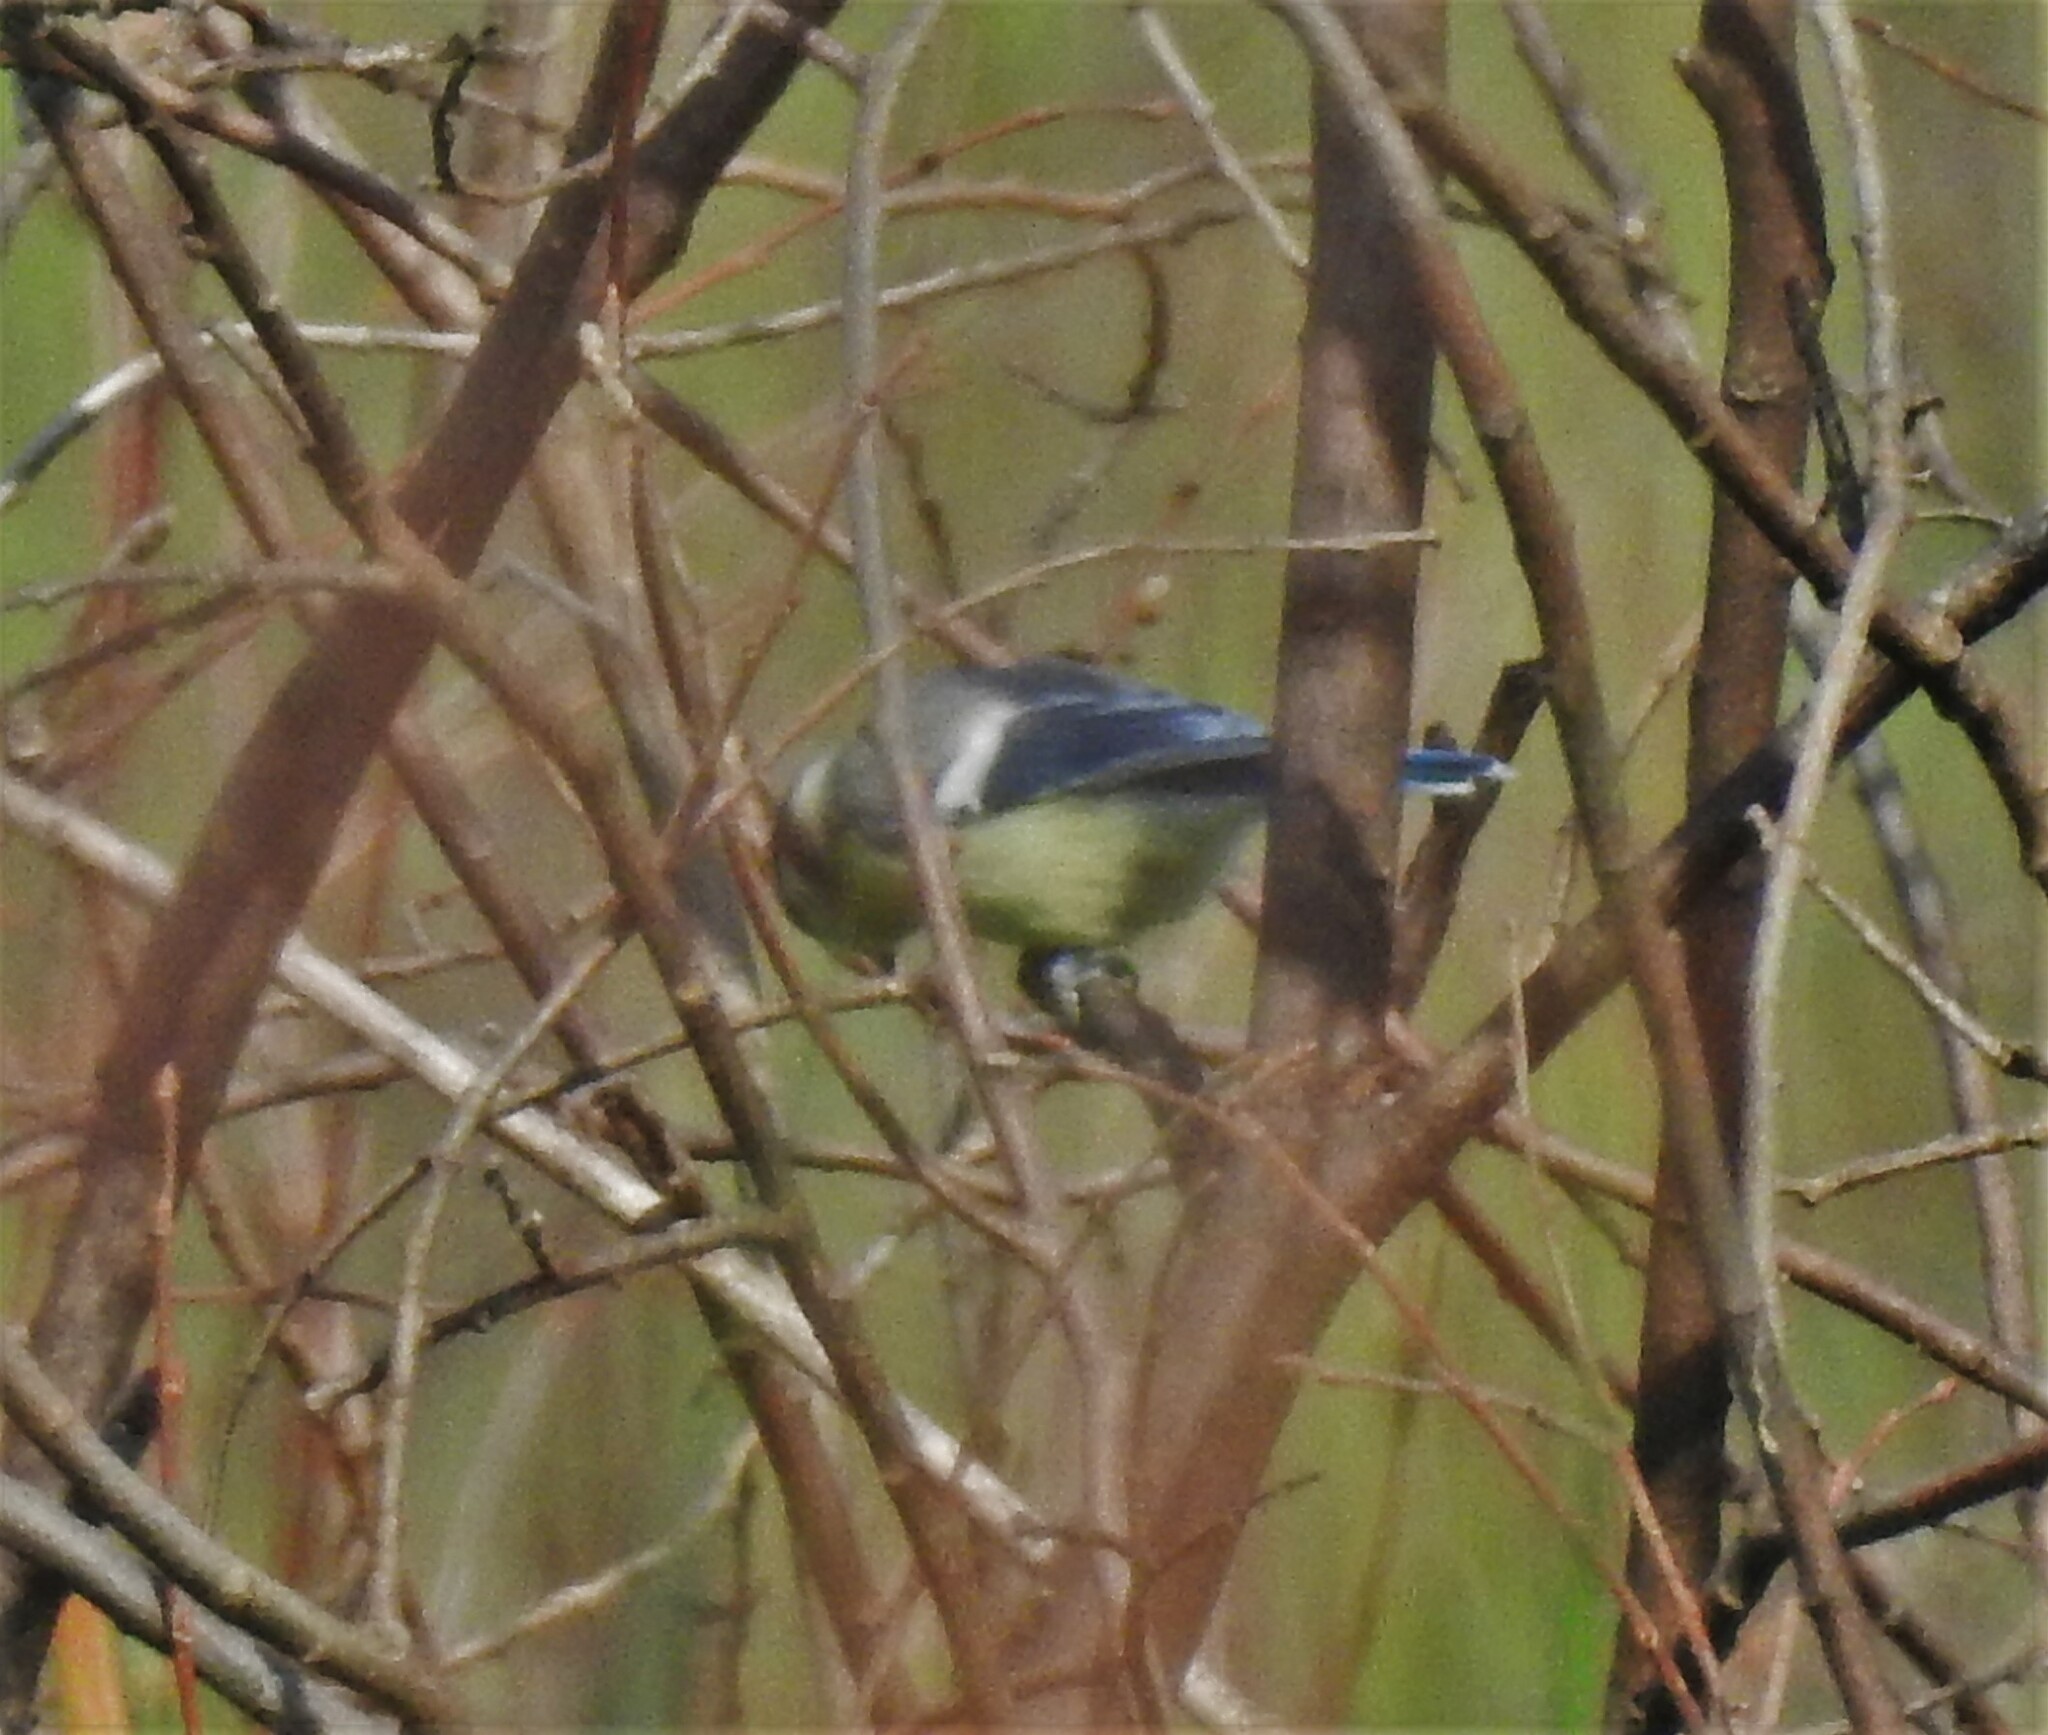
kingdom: Animalia
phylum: Chordata
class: Aves
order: Passeriformes
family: Paridae
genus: Cyanistes
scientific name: Cyanistes caeruleus
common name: Eurasian blue tit
